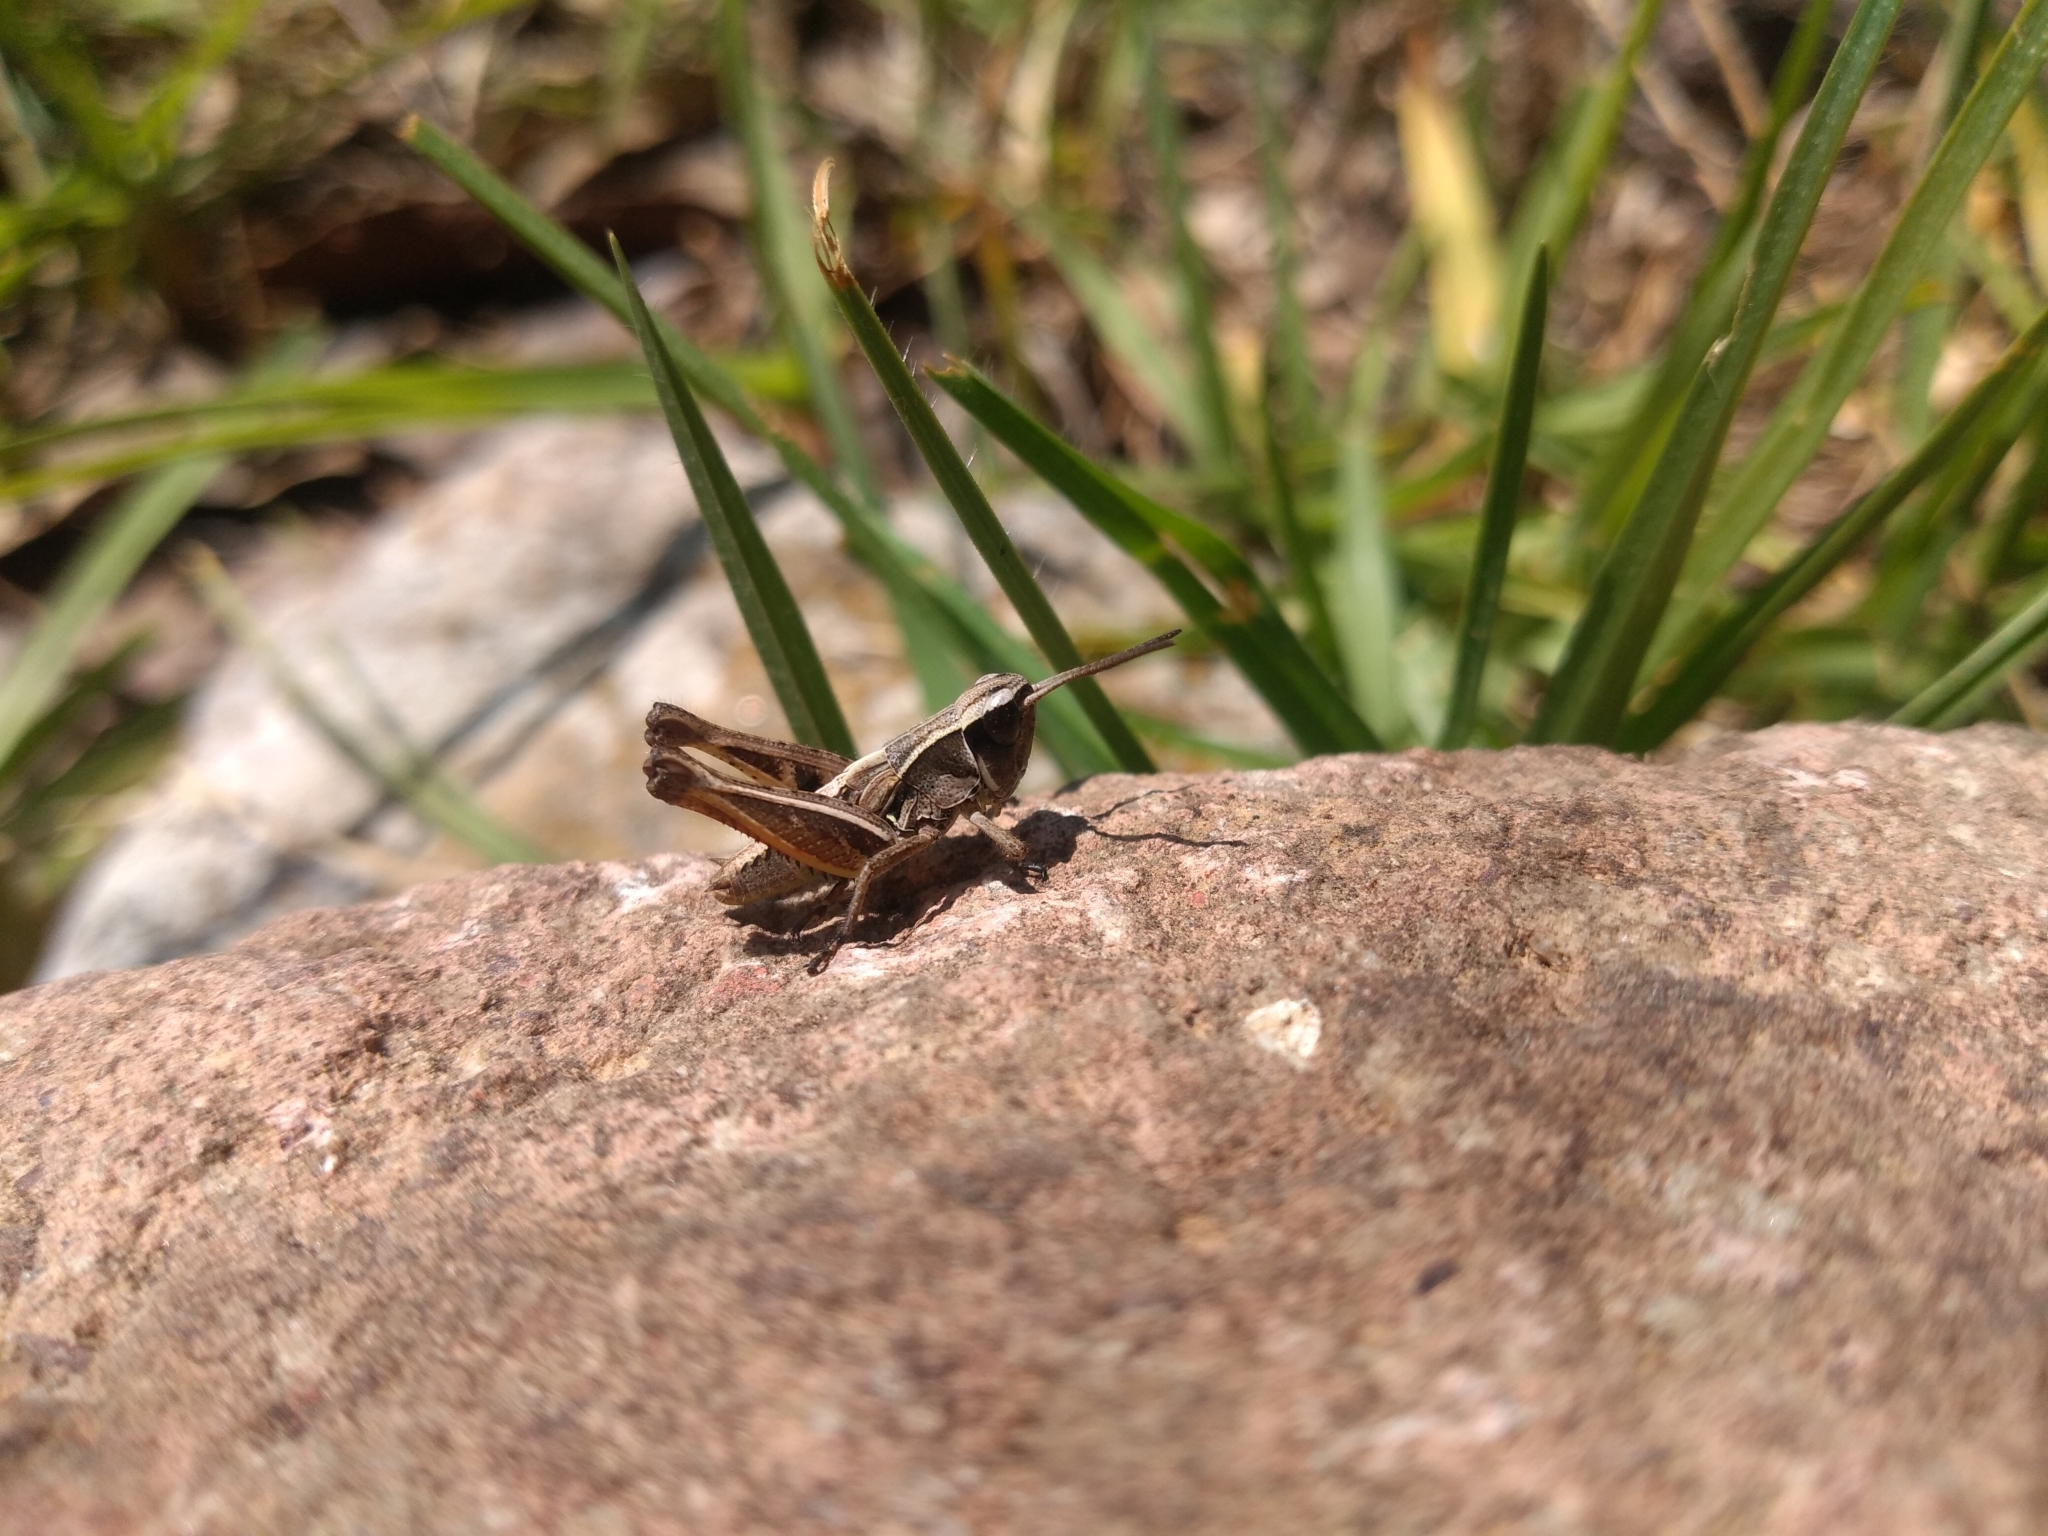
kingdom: Animalia
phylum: Arthropoda
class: Insecta
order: Orthoptera
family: Acrididae
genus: Boopedon
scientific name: Boopedon rufipes
